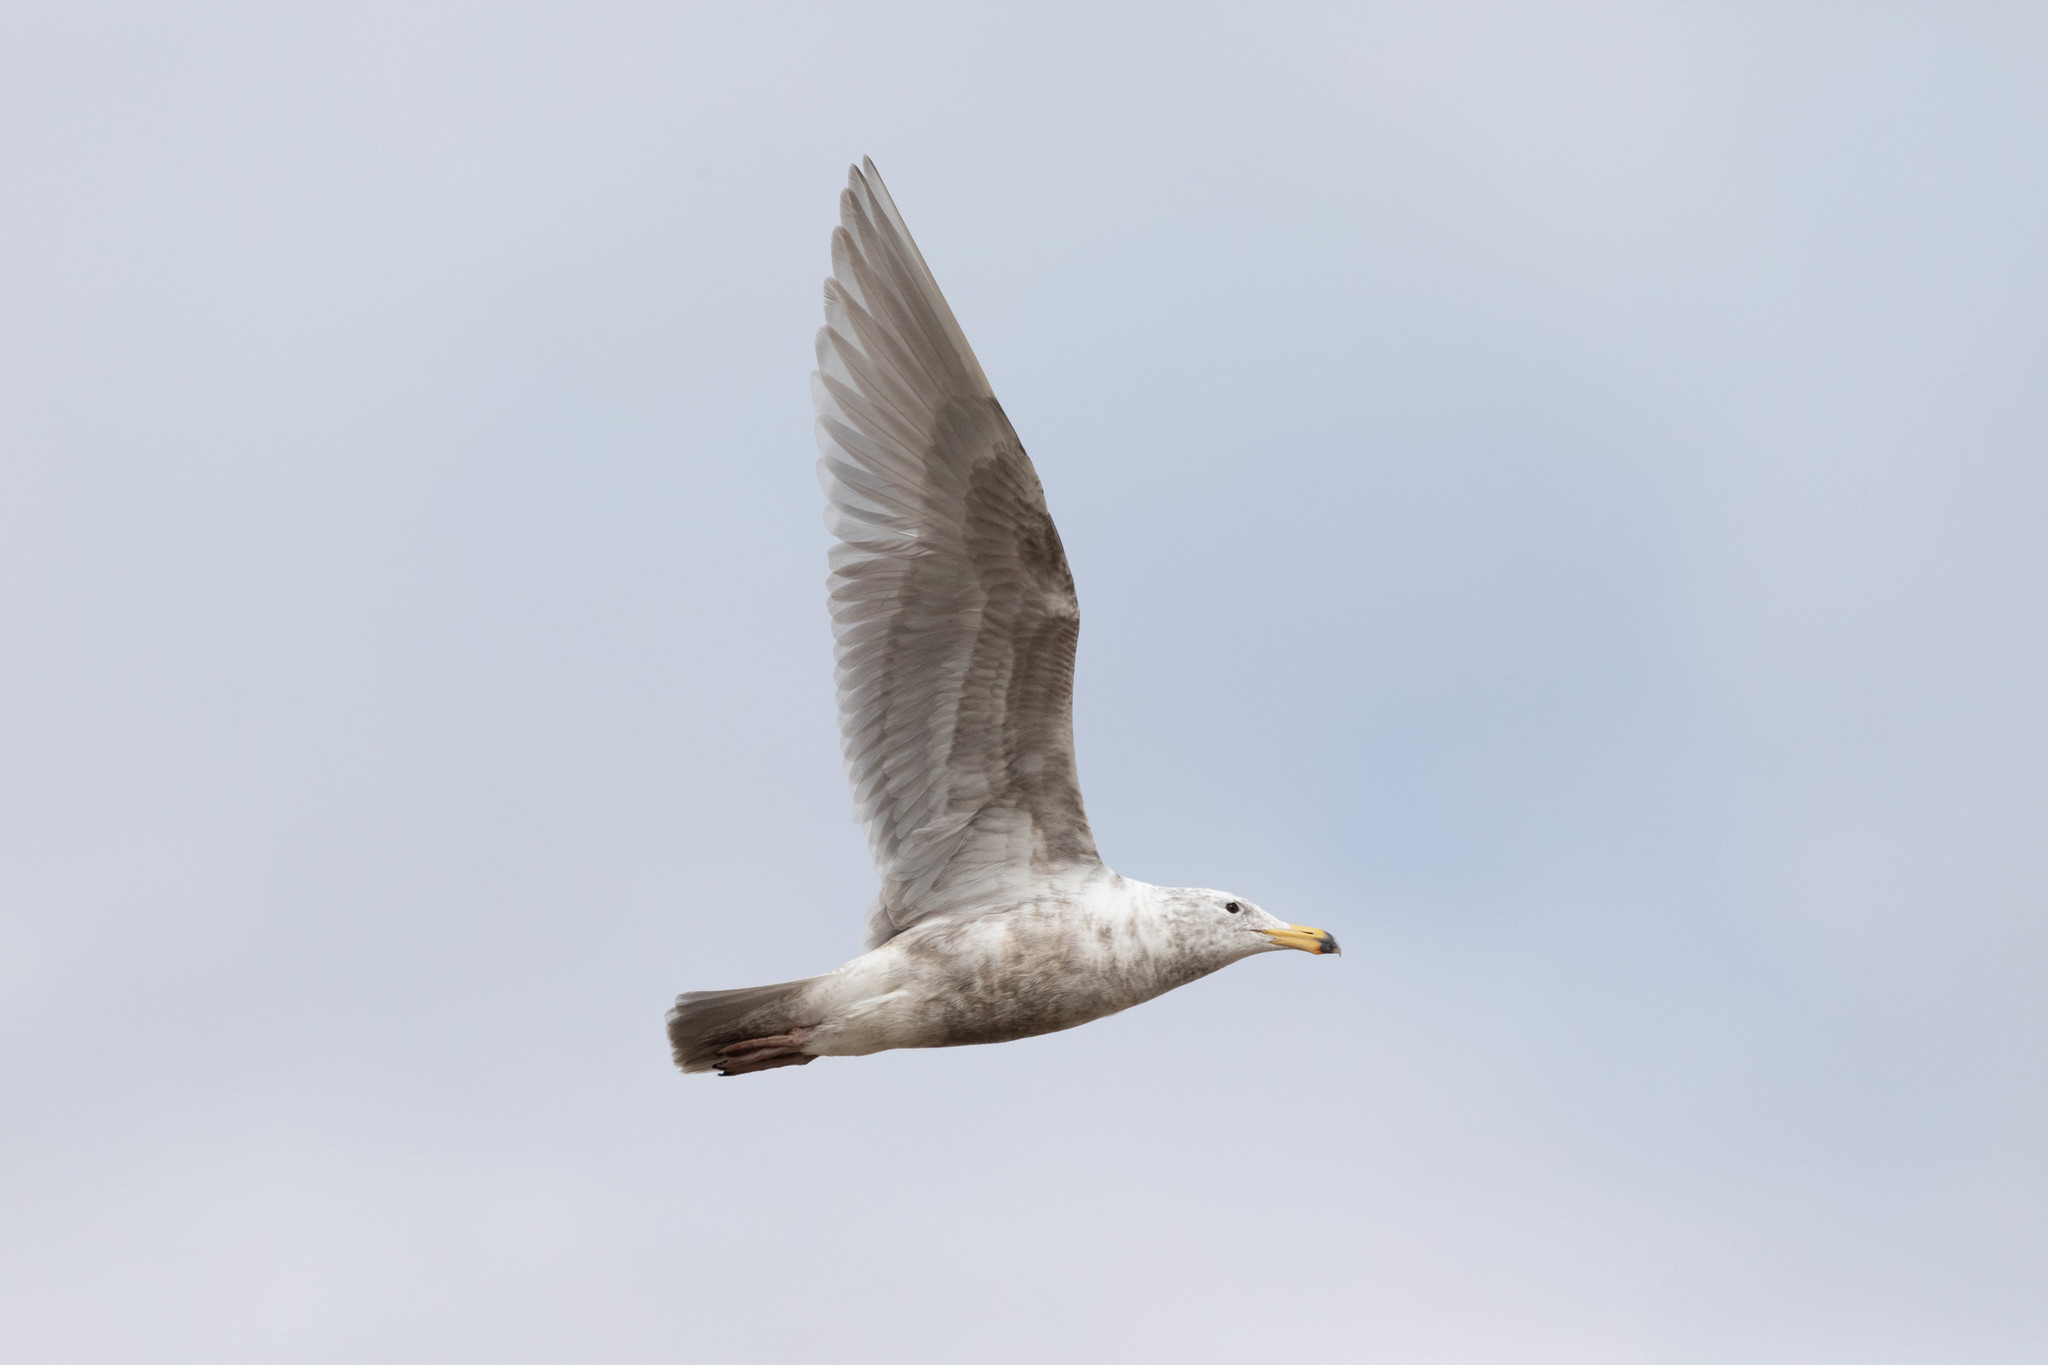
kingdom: Animalia
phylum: Chordata
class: Aves
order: Charadriiformes
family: Laridae
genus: Larus
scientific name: Larus glaucescens
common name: Glaucous-winged gull
